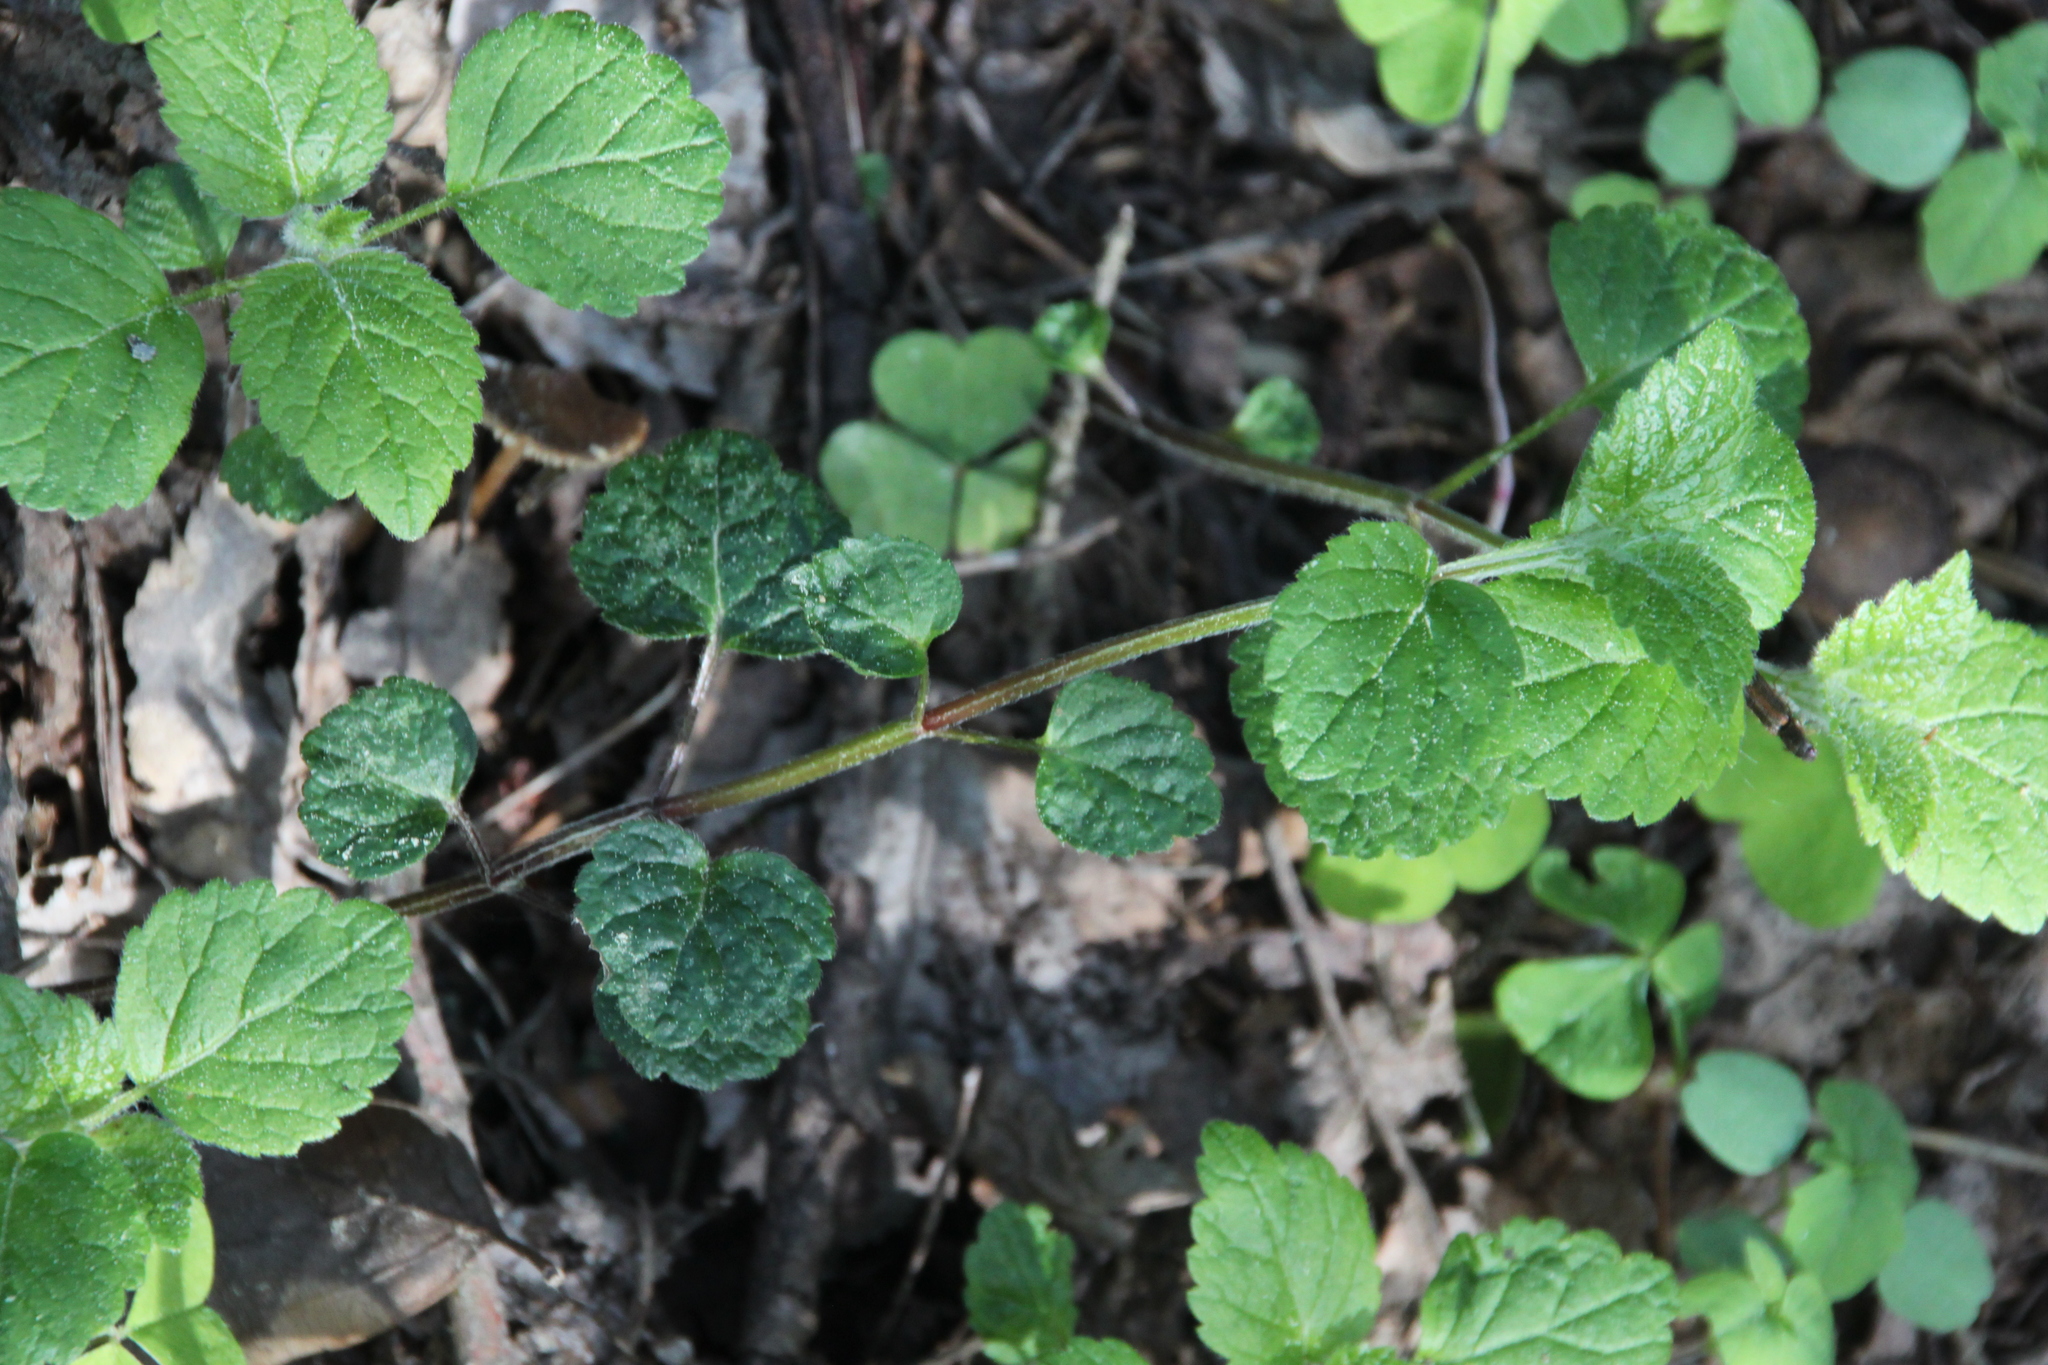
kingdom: Plantae
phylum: Tracheophyta
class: Magnoliopsida
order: Lamiales
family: Lamiaceae
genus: Lamium
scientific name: Lamium galeobdolon
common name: Yellow archangel
